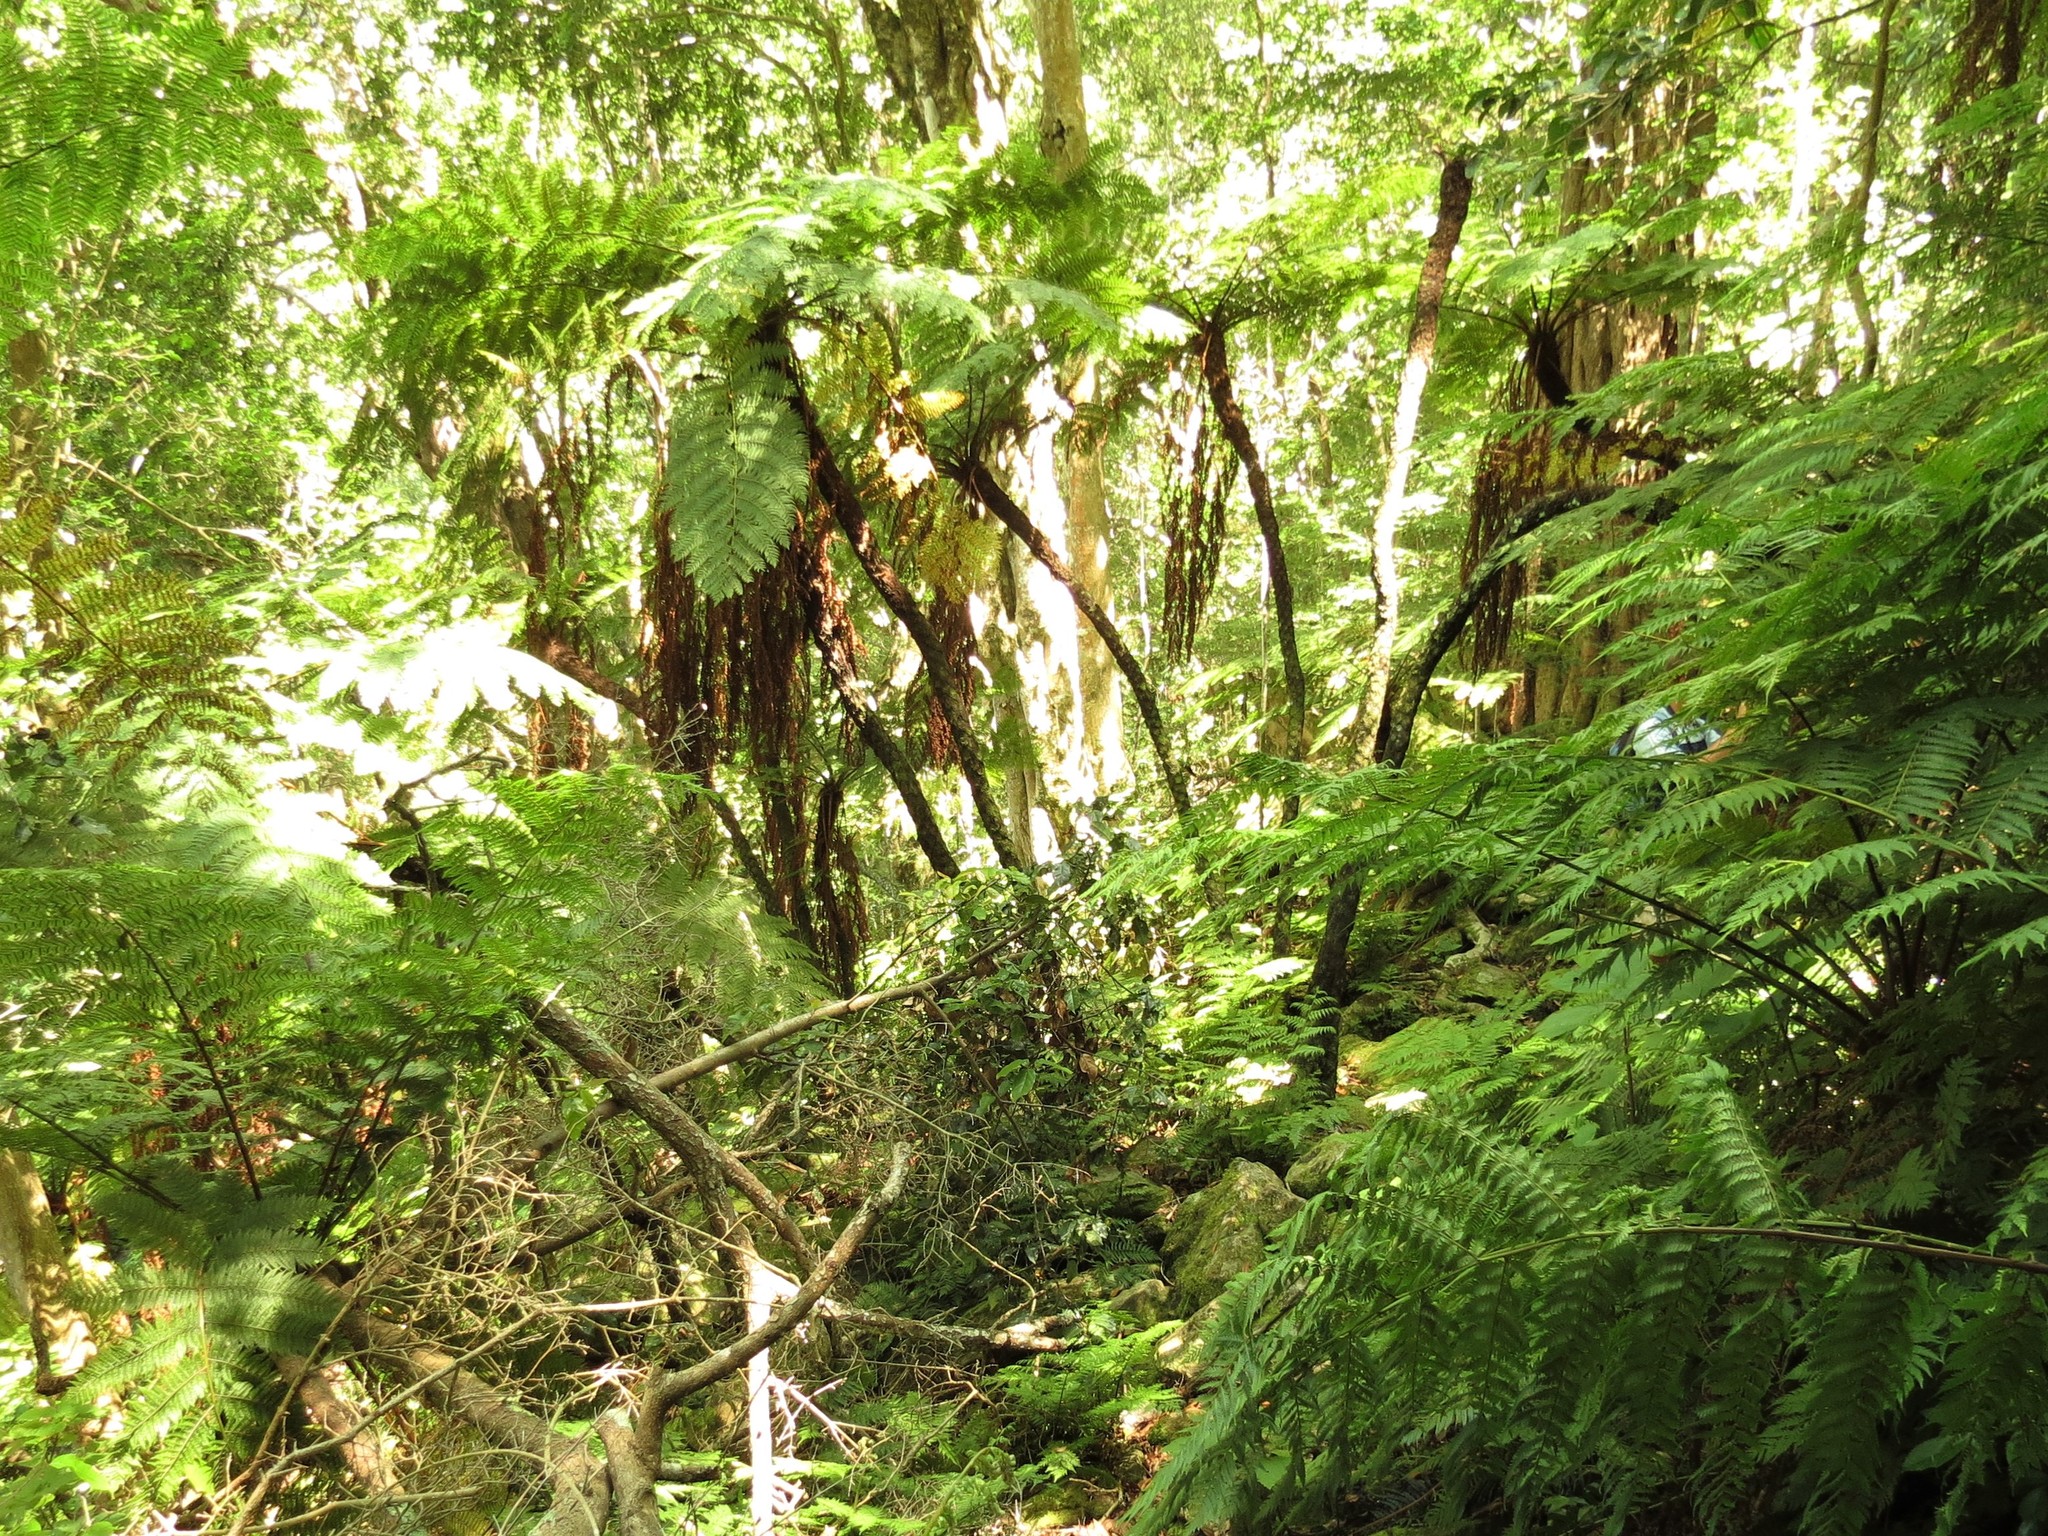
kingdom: Plantae
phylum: Tracheophyta
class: Polypodiopsida
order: Cyatheales
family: Cyatheaceae
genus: Gymnosphaera
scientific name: Gymnosphaera capensis
